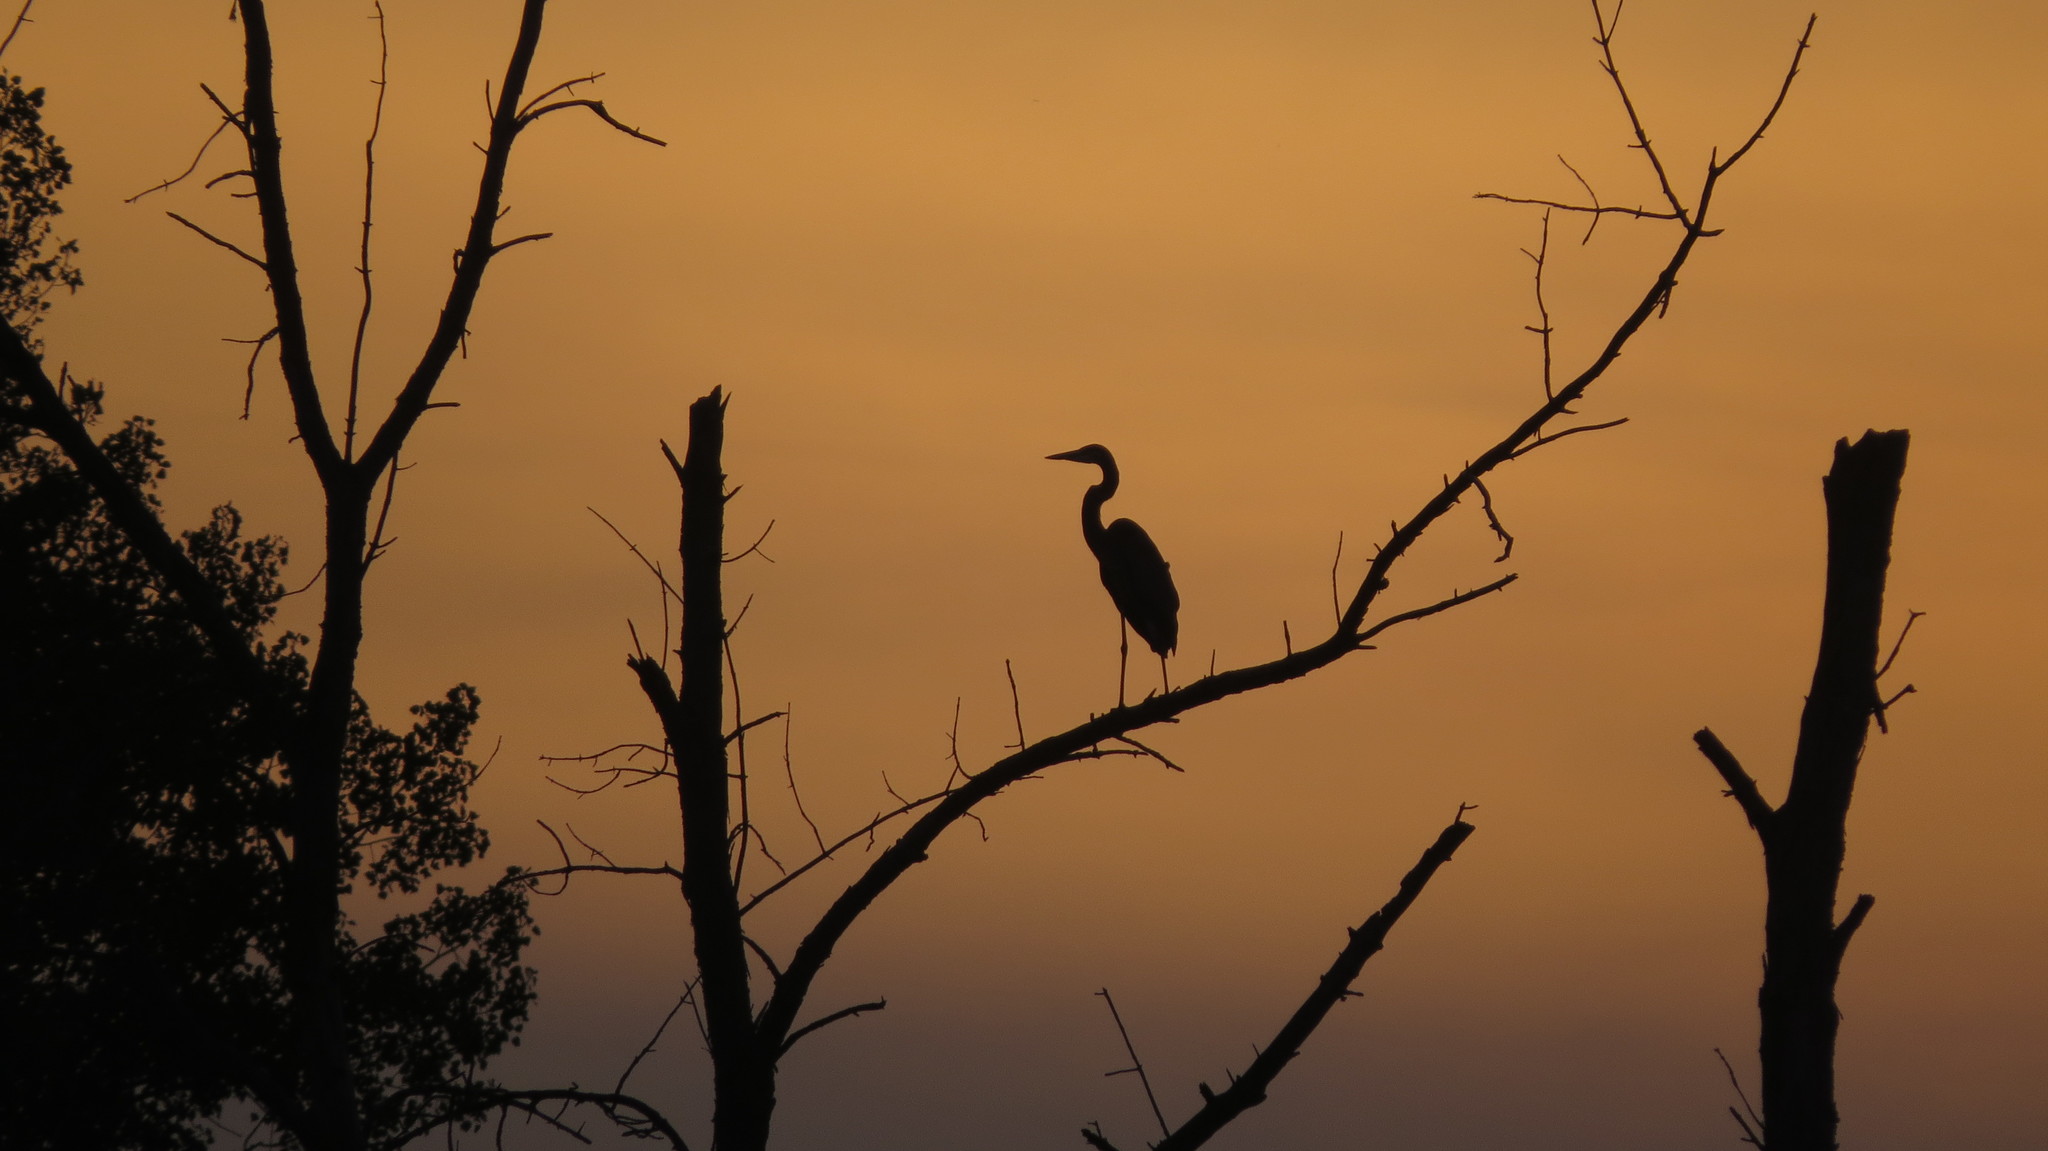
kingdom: Animalia
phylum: Chordata
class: Aves
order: Pelecaniformes
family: Ardeidae
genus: Ardea
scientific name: Ardea herodias
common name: Great blue heron
